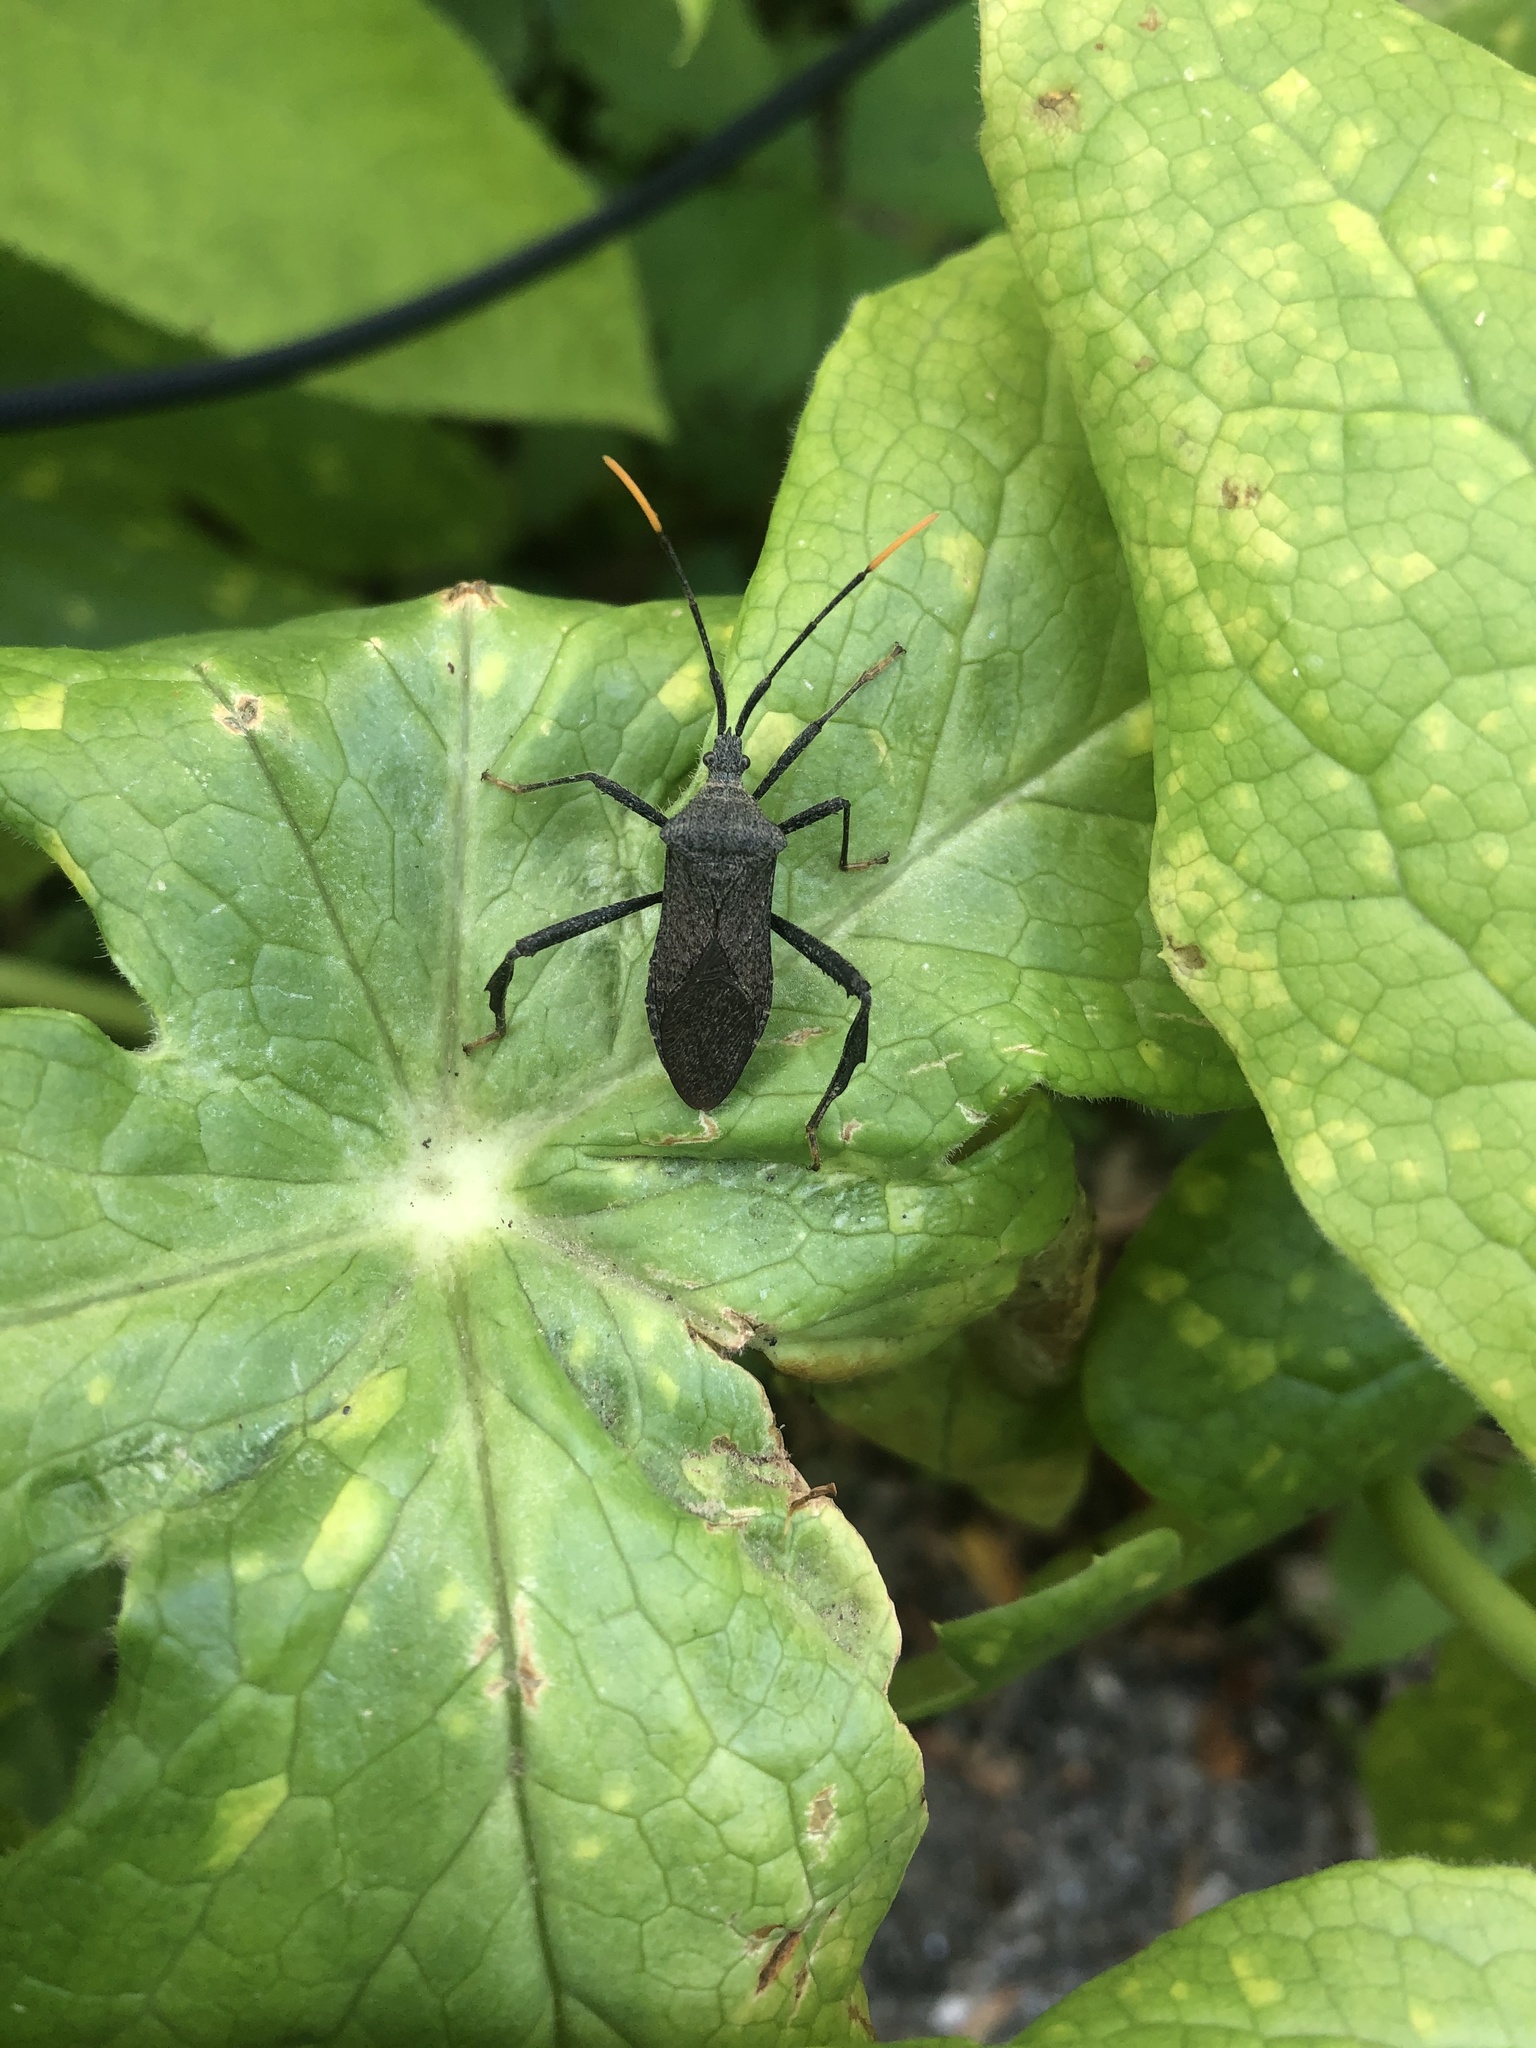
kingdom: Animalia
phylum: Arthropoda
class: Insecta
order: Hemiptera
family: Coreidae
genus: Acanthocephala
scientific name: Acanthocephala terminalis
